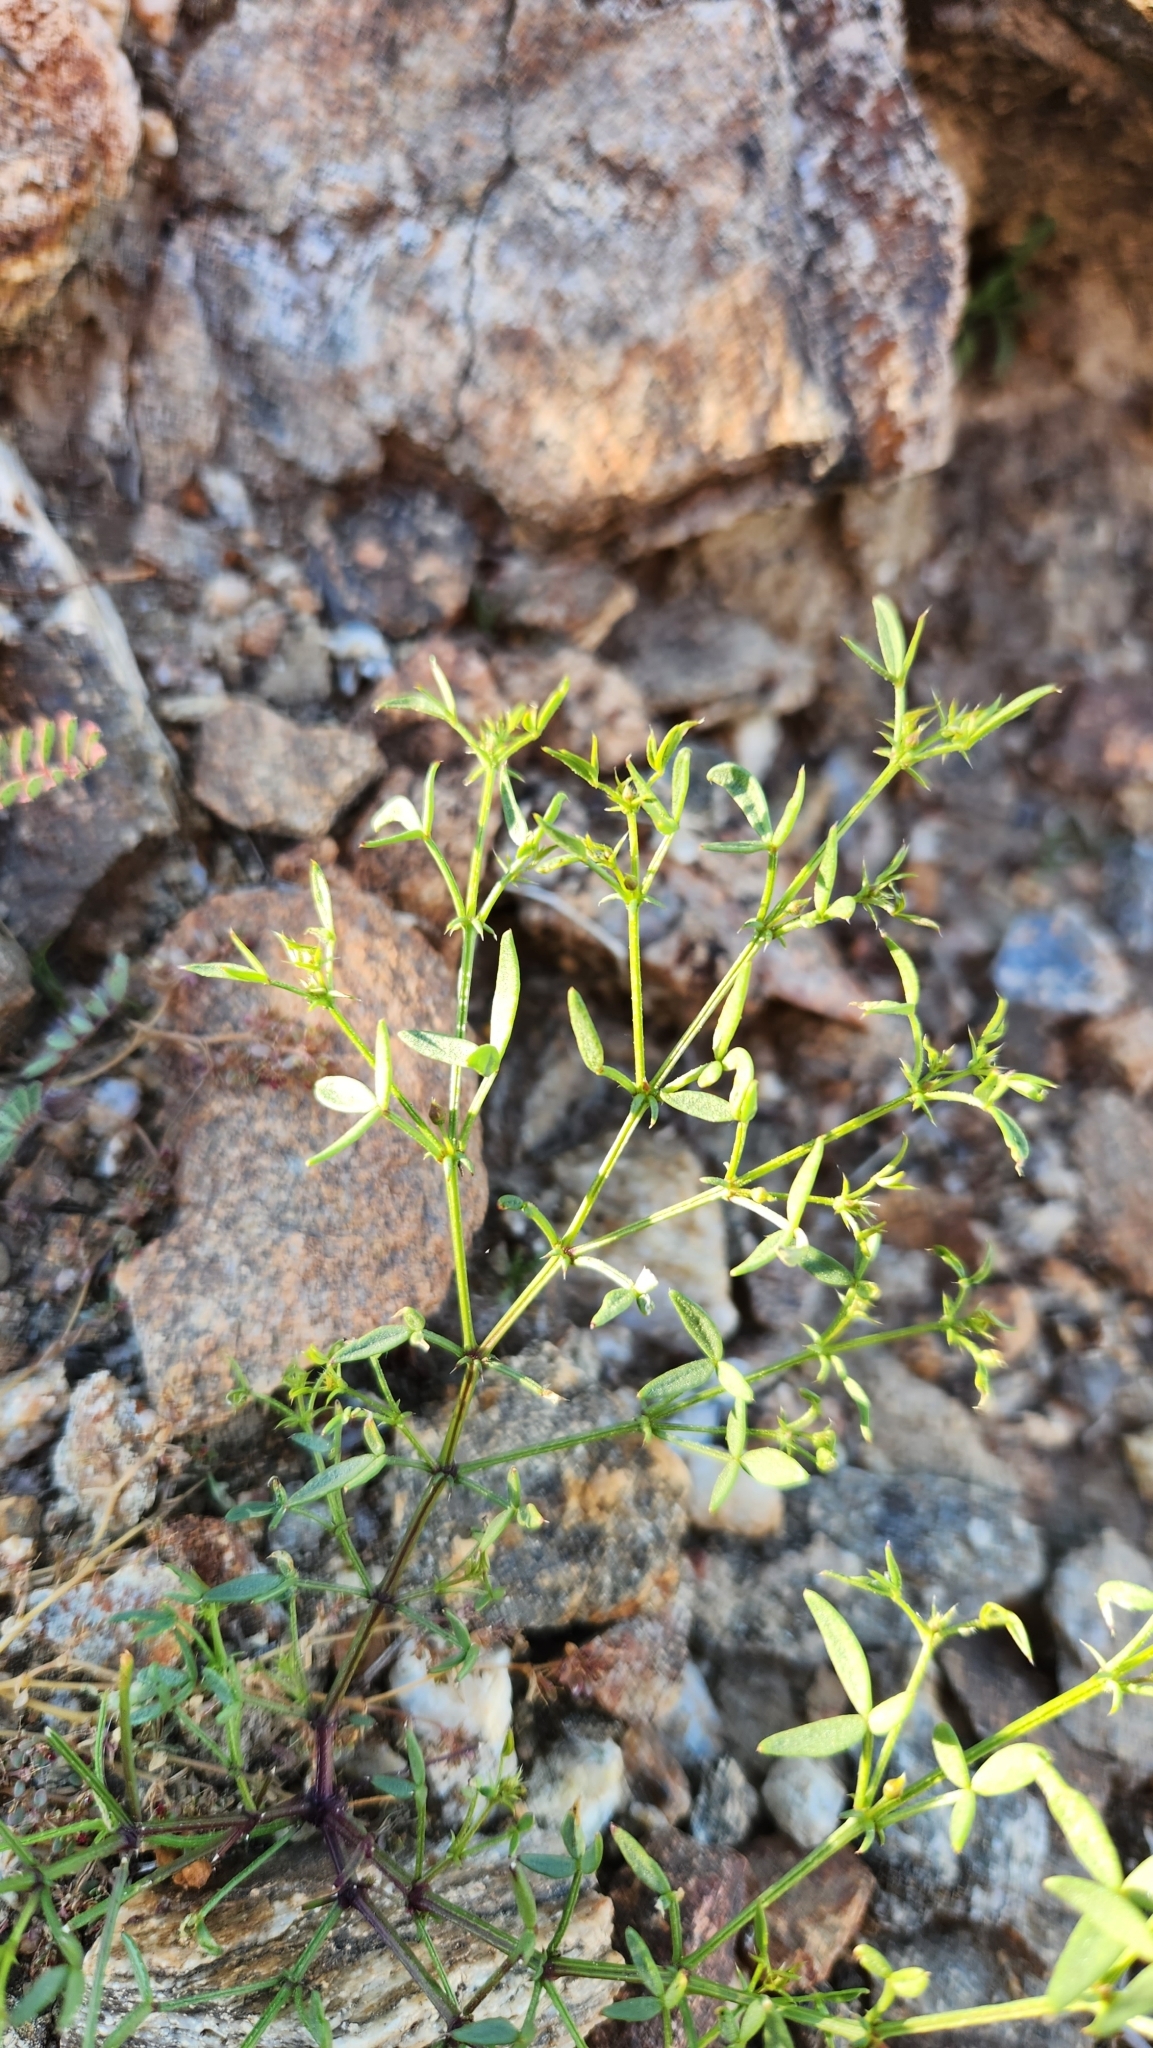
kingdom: Plantae
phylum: Tracheophyta
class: Magnoliopsida
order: Zygophyllales
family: Zygophyllaceae
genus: Fagonia
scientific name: Fagonia laevis
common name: California fagonbush
